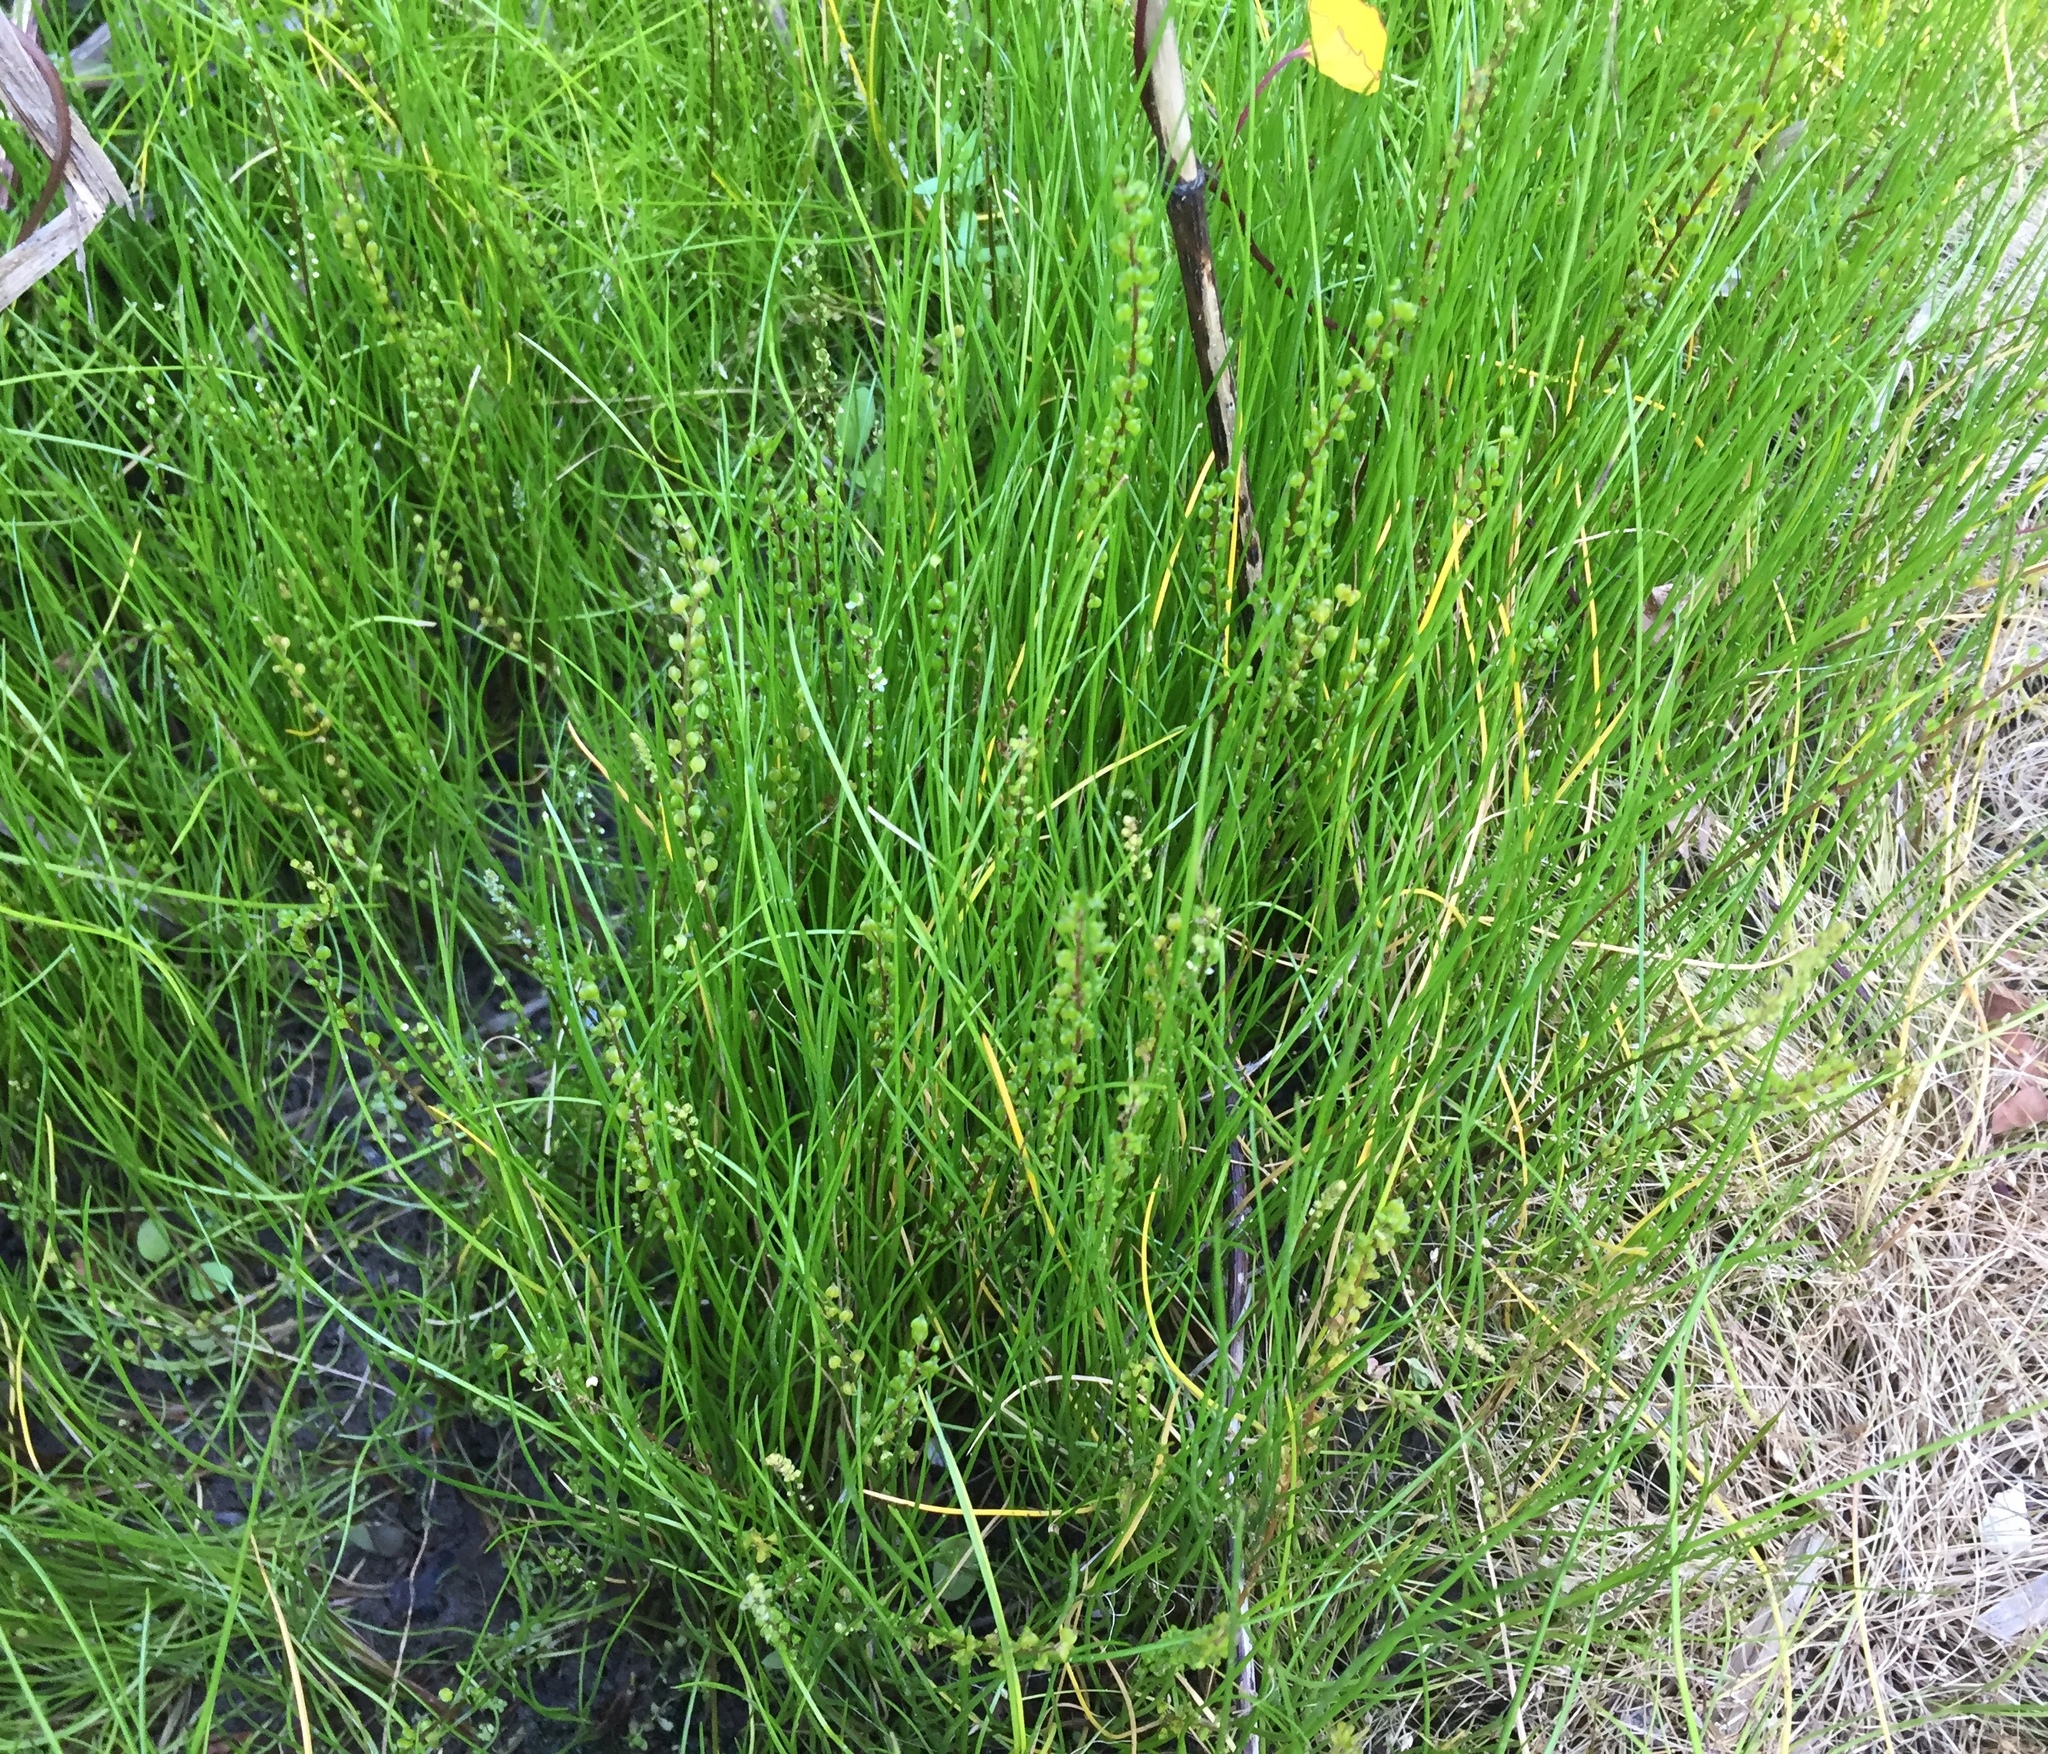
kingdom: Plantae
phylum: Tracheophyta
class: Liliopsida
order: Alismatales
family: Juncaginaceae
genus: Triglochin
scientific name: Triglochin striata
